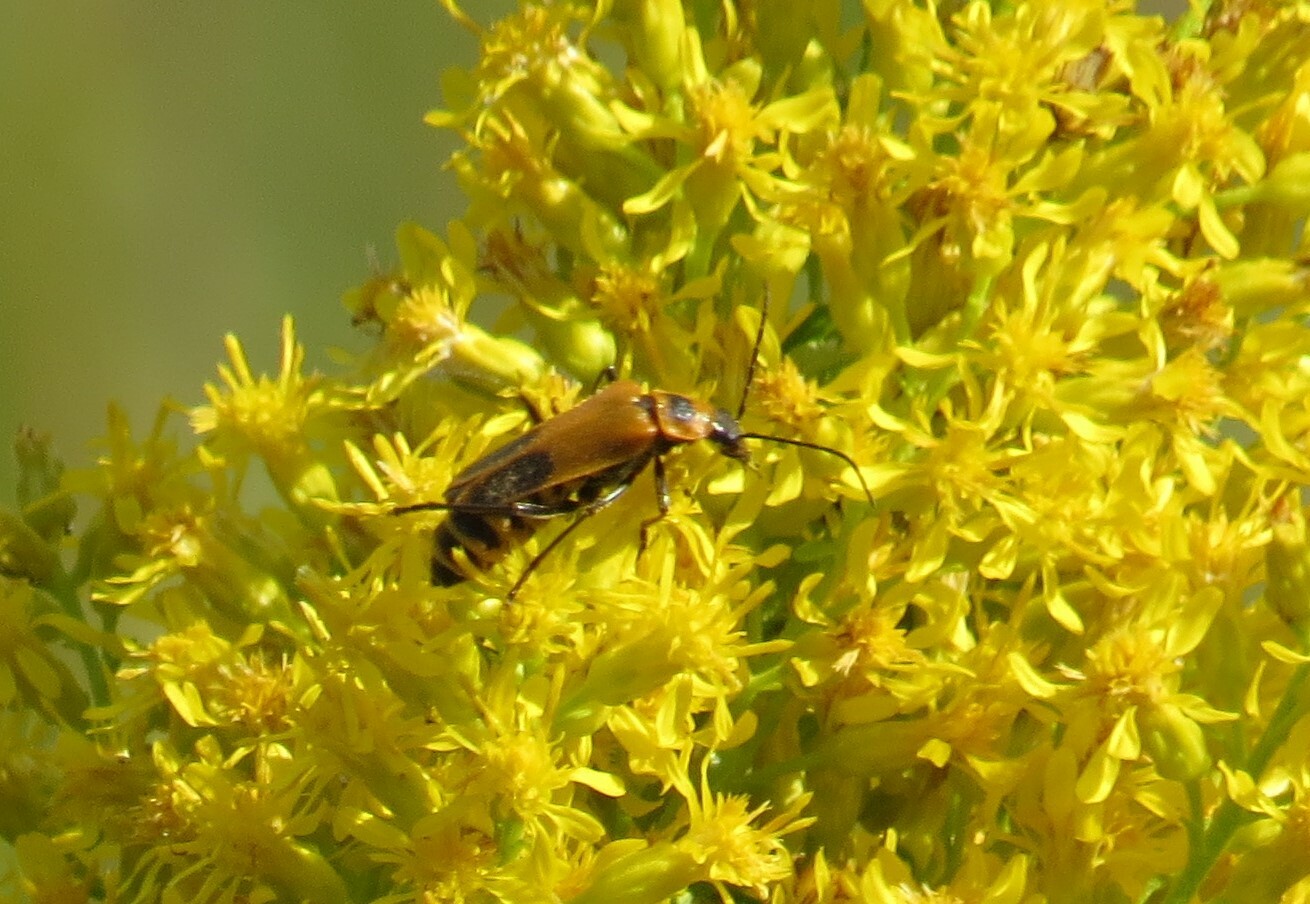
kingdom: Animalia
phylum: Arthropoda
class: Insecta
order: Coleoptera
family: Cantharidae
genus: Chauliognathus
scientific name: Chauliognathus pensylvanicus
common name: Goldenrod soldier beetle
